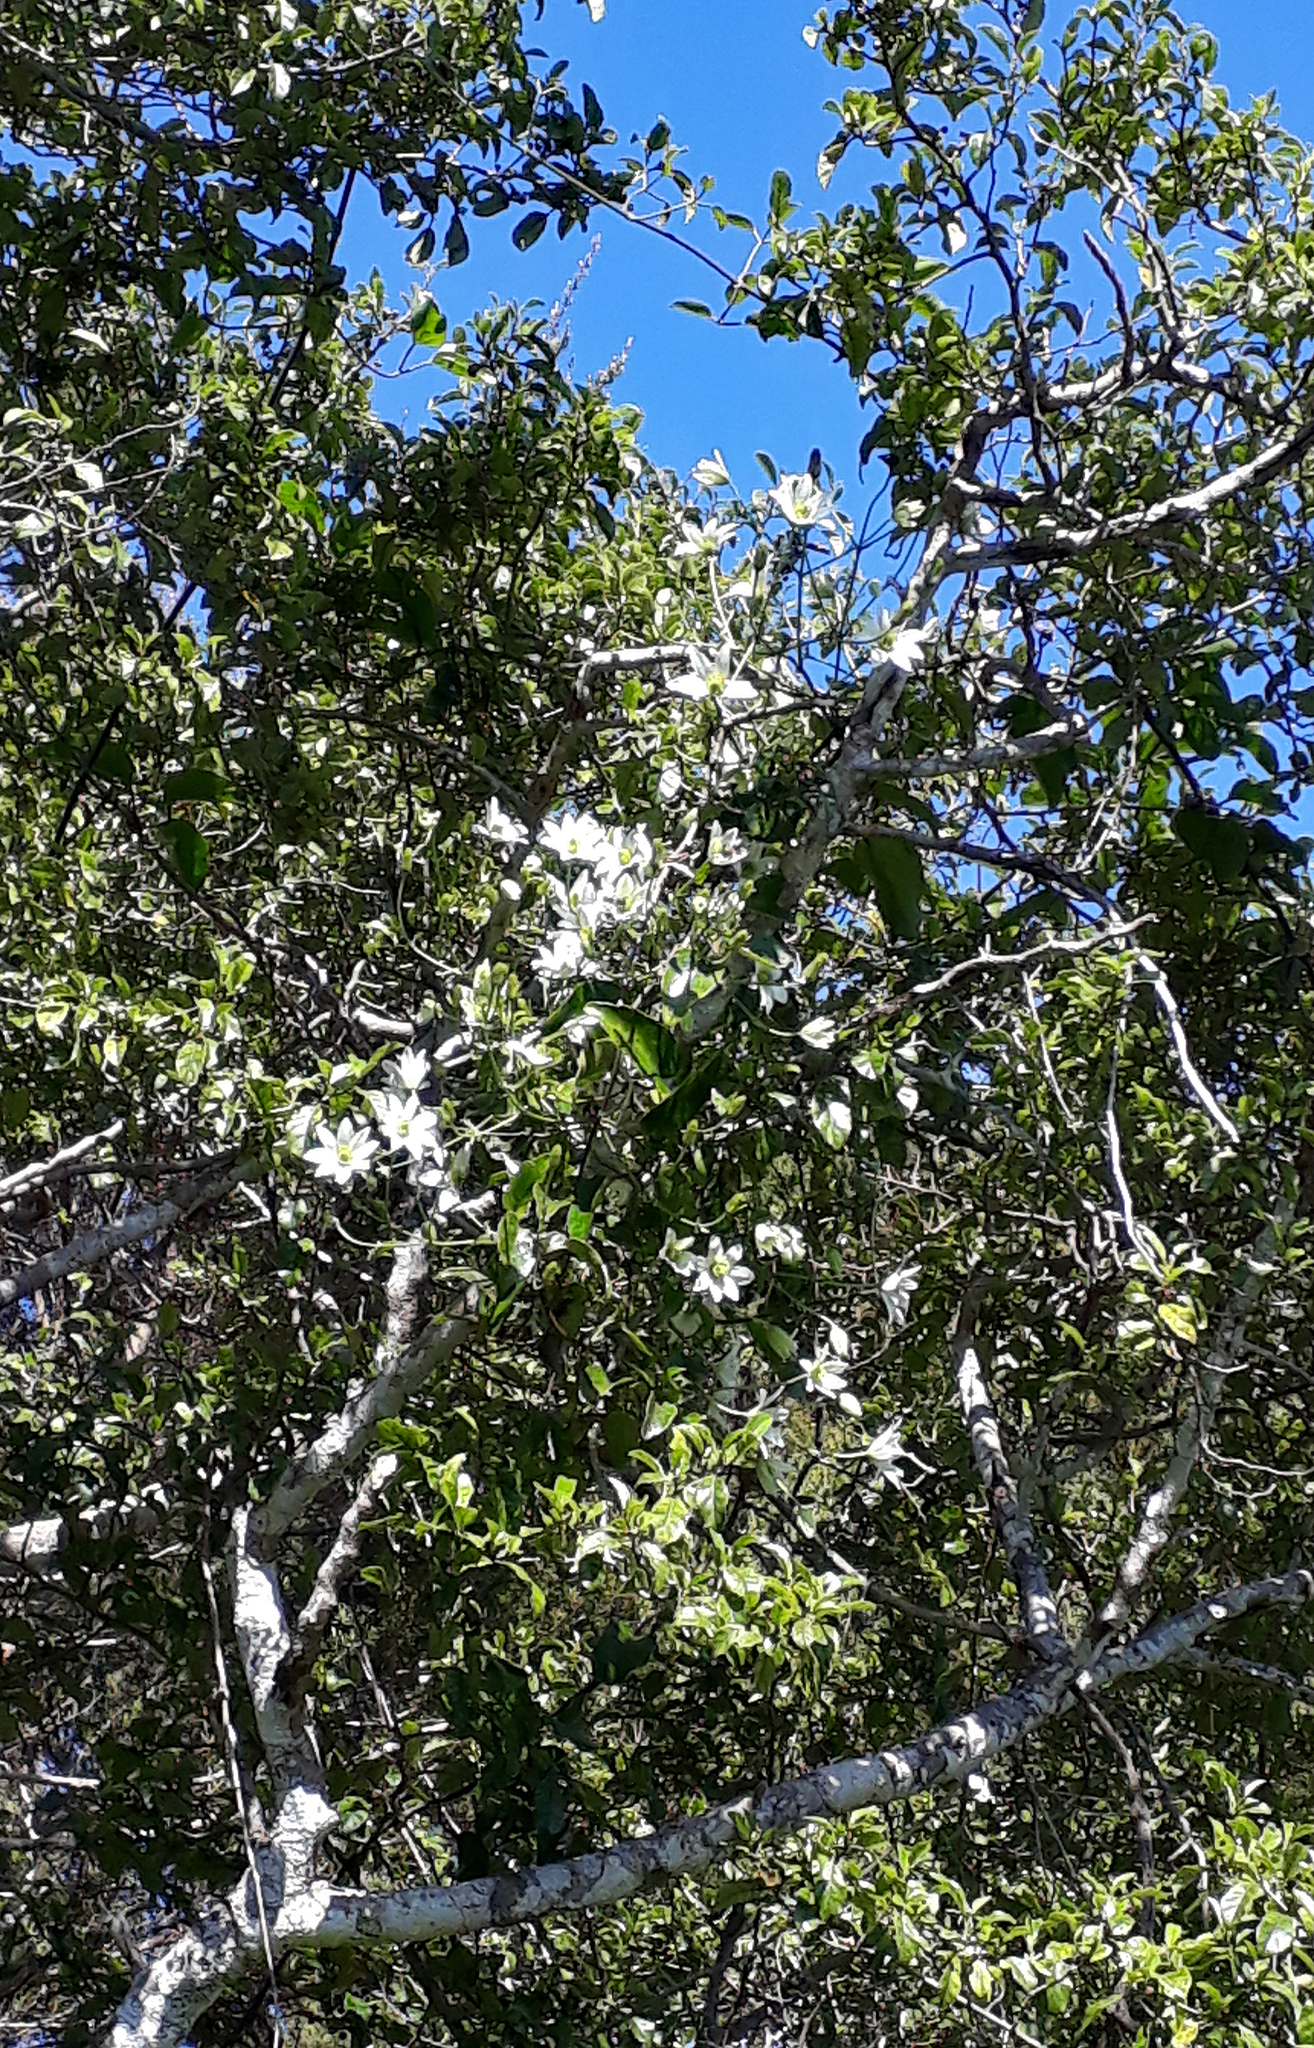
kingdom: Plantae
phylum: Tracheophyta
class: Magnoliopsida
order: Ranunculales
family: Ranunculaceae
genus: Clematis
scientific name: Clematis paniculata
